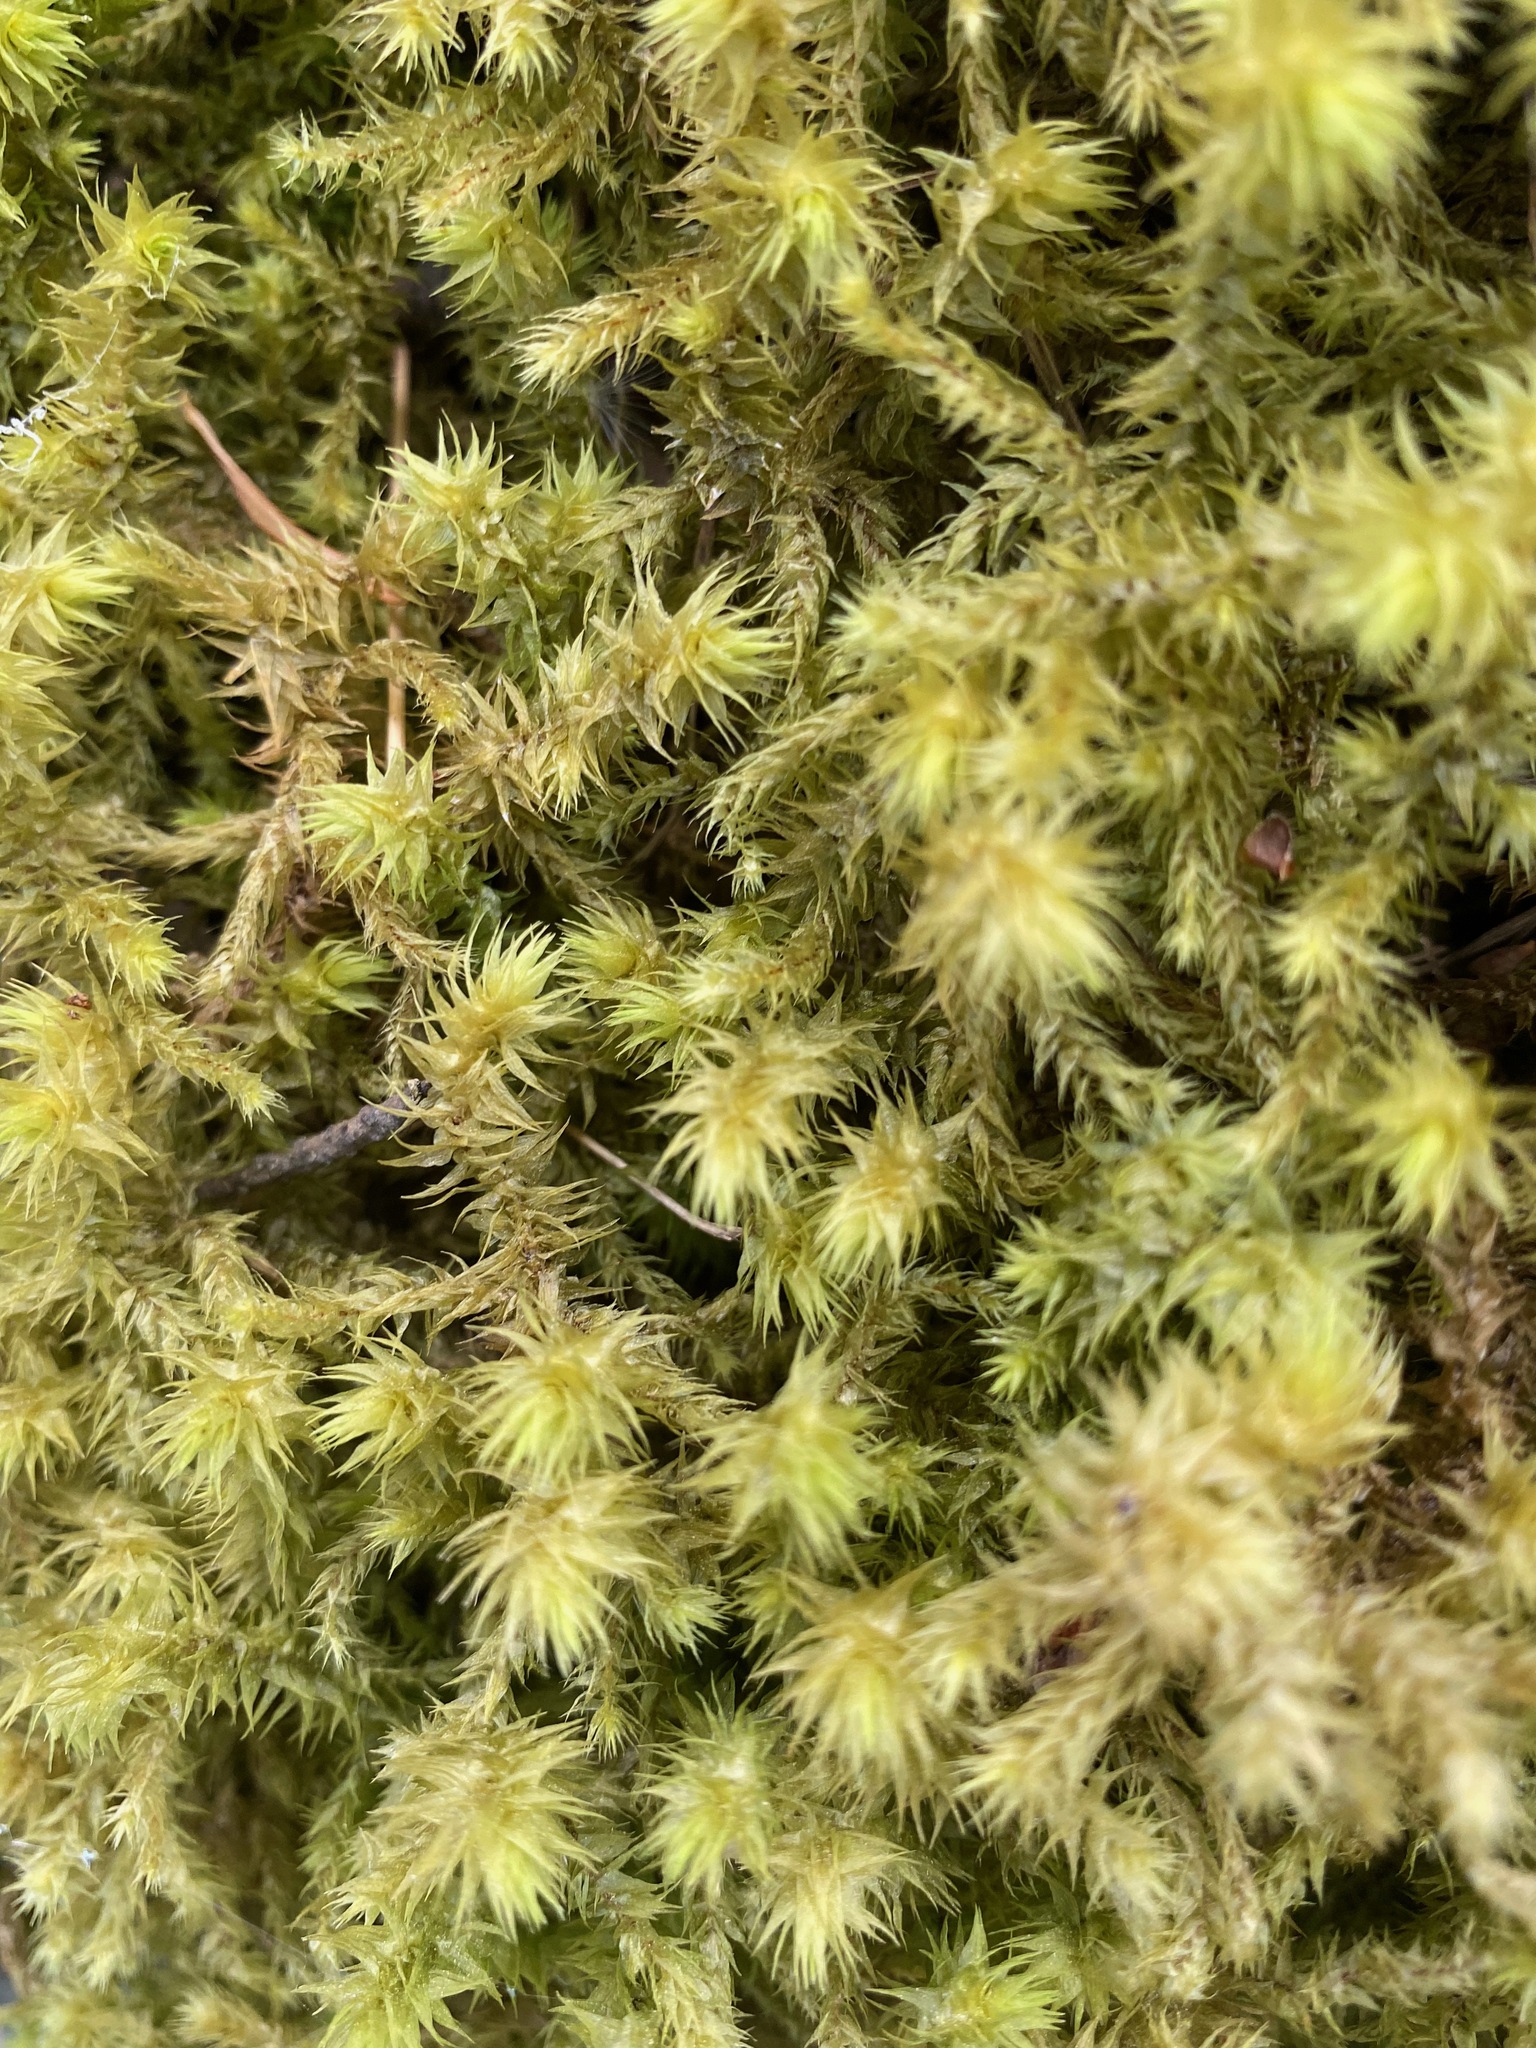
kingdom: Plantae
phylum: Bryophyta
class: Bryopsida
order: Hypnales
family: Hylocomiaceae
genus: Hylocomiadelphus
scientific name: Hylocomiadelphus triquetrus
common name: Rough goose neck moss
